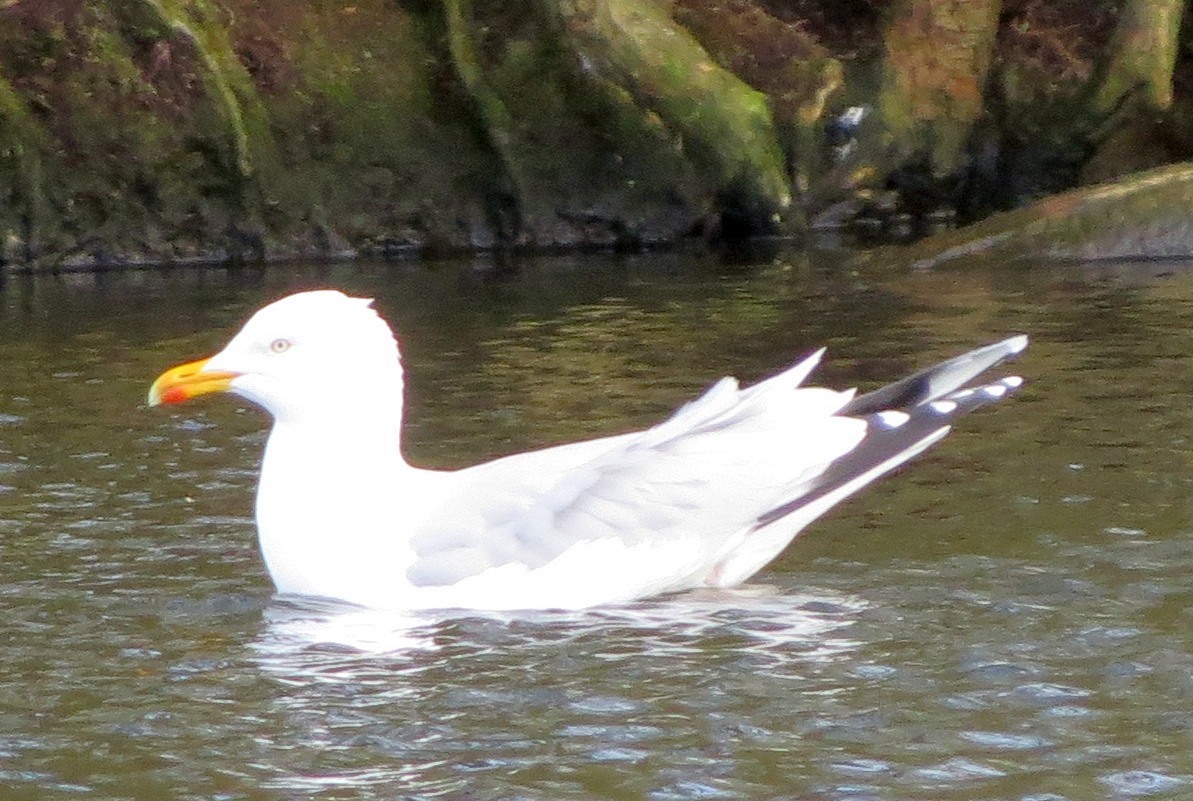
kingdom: Animalia
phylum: Chordata
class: Aves
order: Charadriiformes
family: Laridae
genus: Larus
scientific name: Larus argentatus
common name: Herring gull
